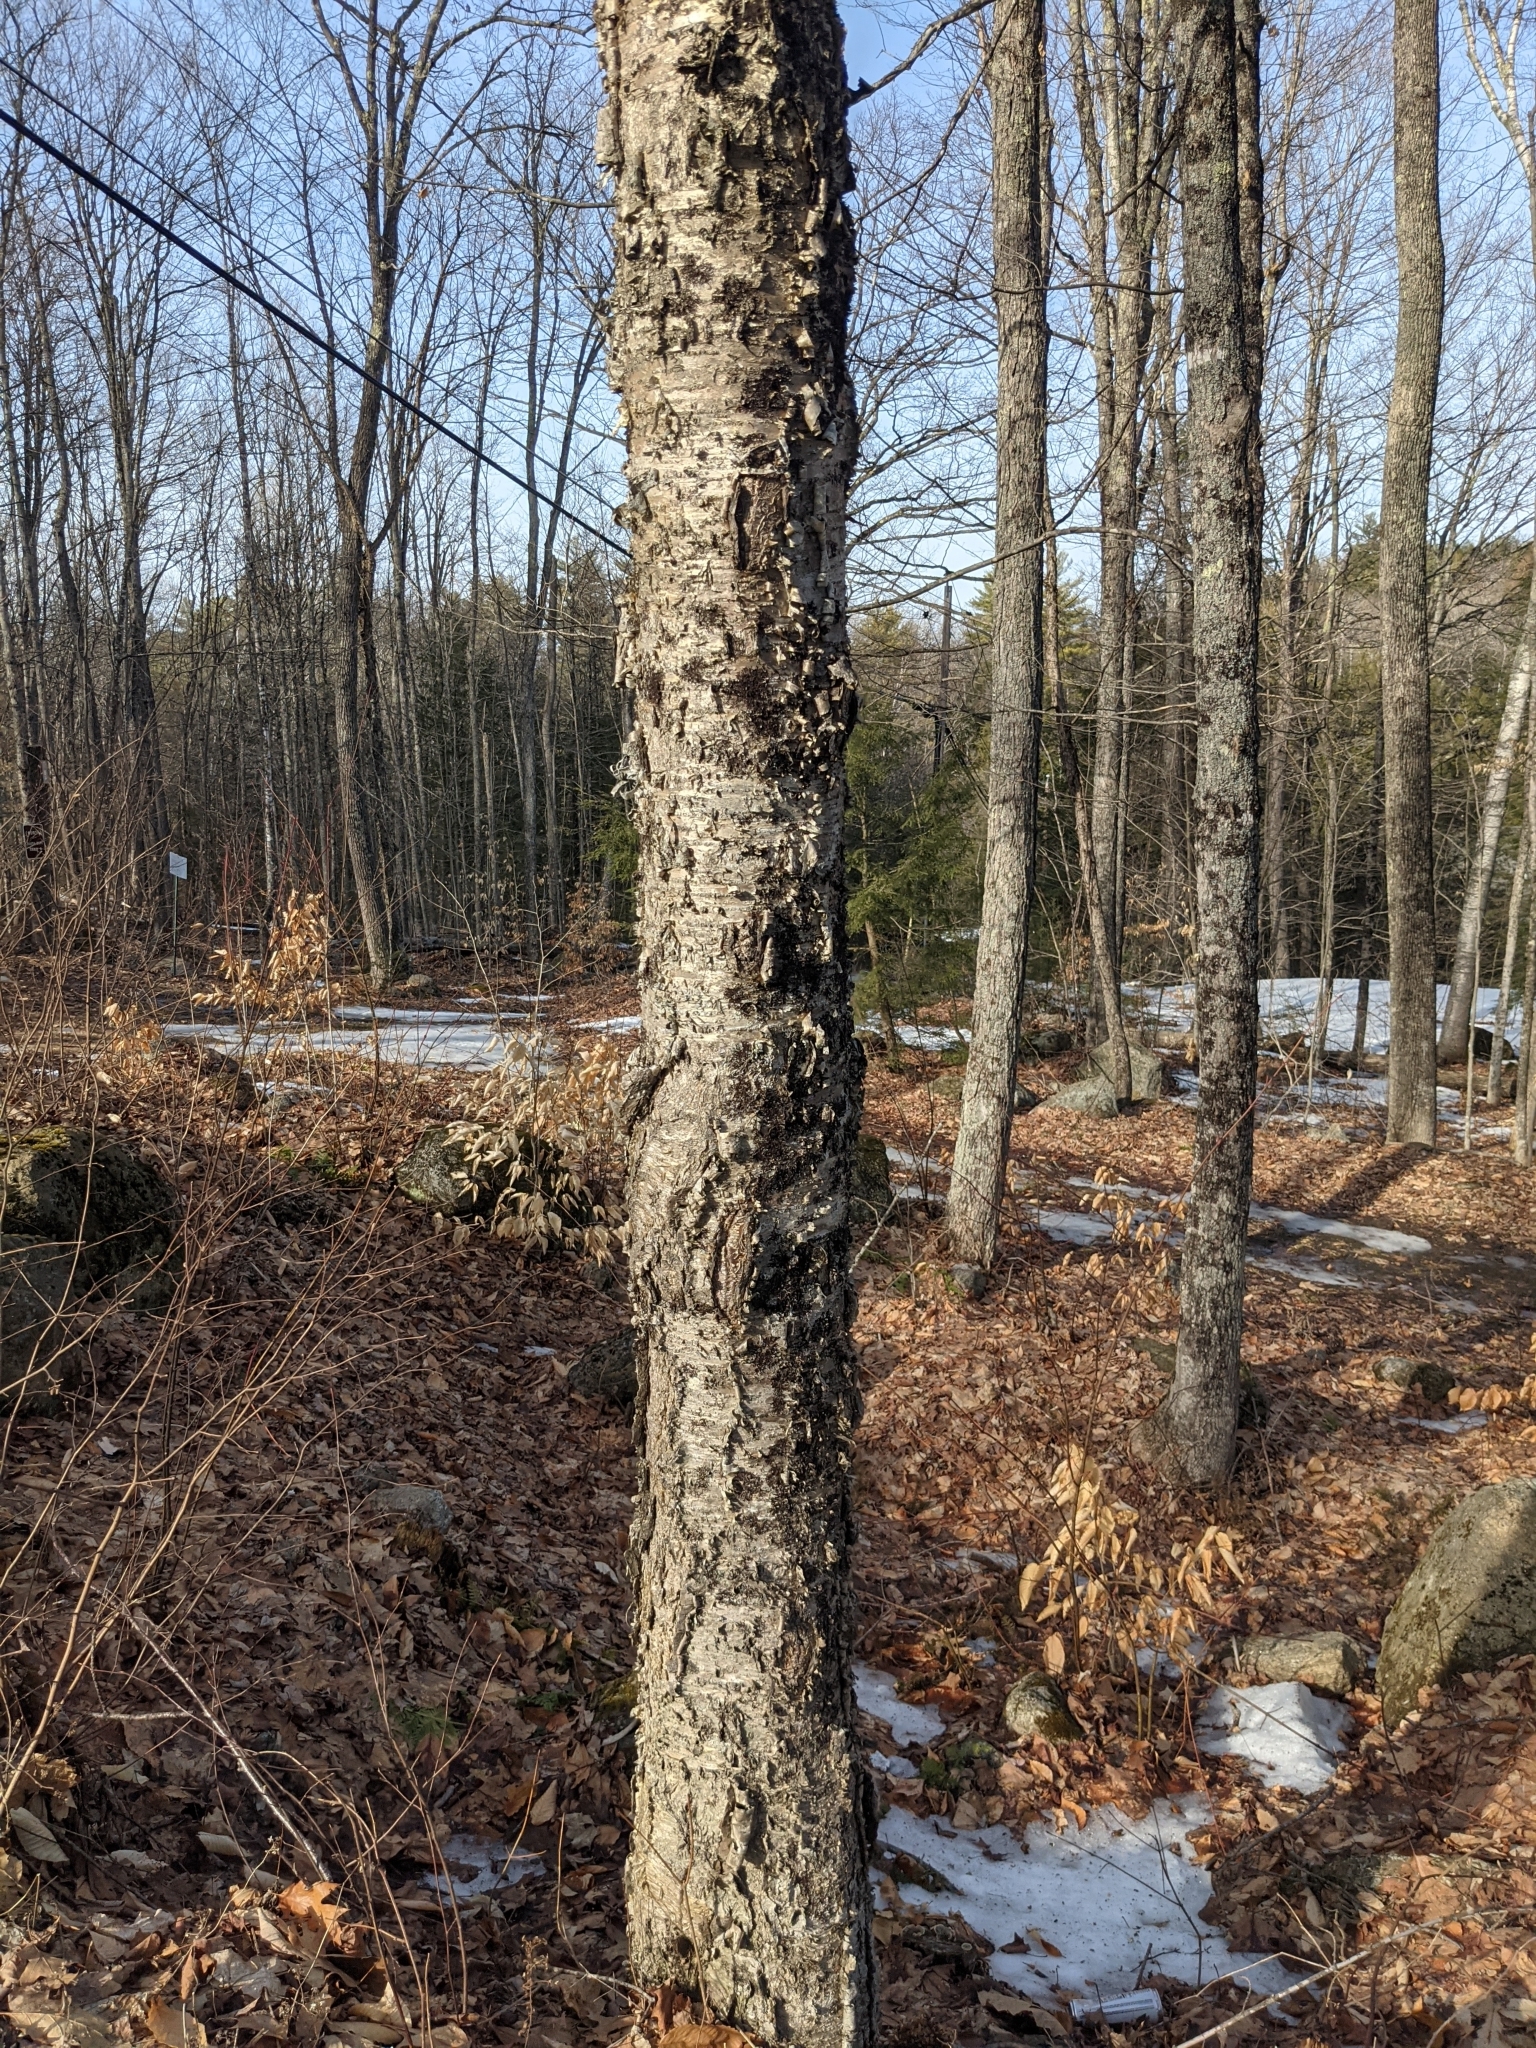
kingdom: Plantae
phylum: Tracheophyta
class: Magnoliopsida
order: Fagales
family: Betulaceae
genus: Betula
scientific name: Betula alleghaniensis
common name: Yellow birch
